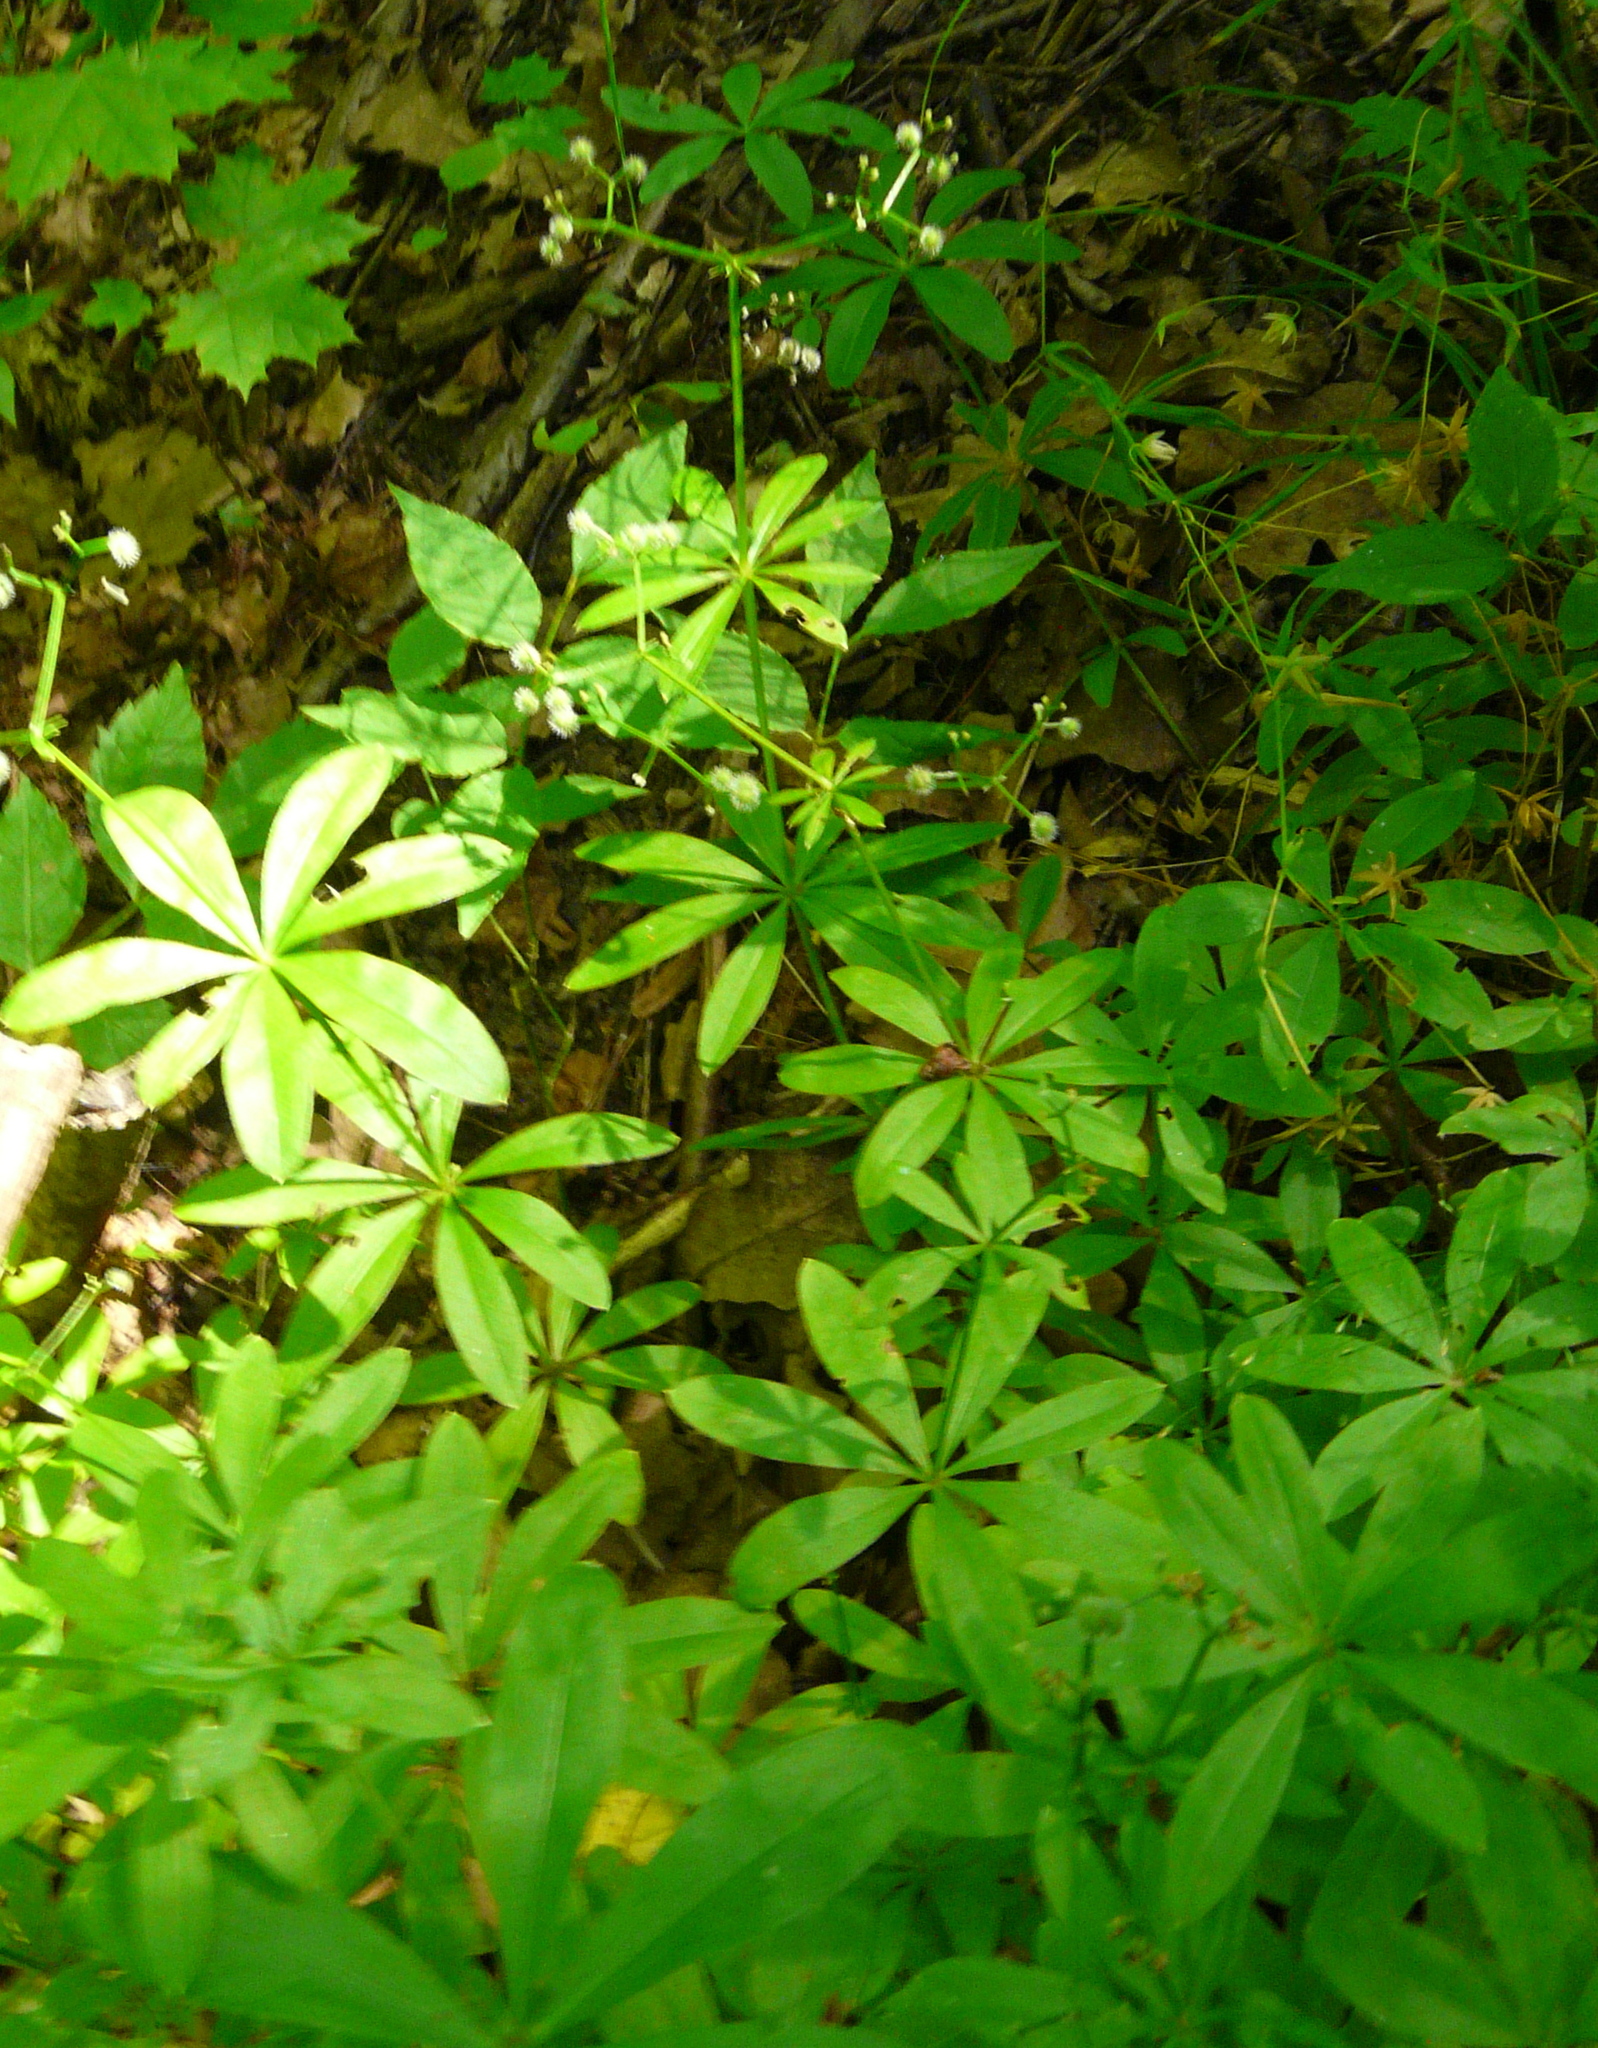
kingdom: Plantae
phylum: Tracheophyta
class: Magnoliopsida
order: Gentianales
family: Rubiaceae
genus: Galium
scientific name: Galium odoratum
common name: Sweet woodruff
